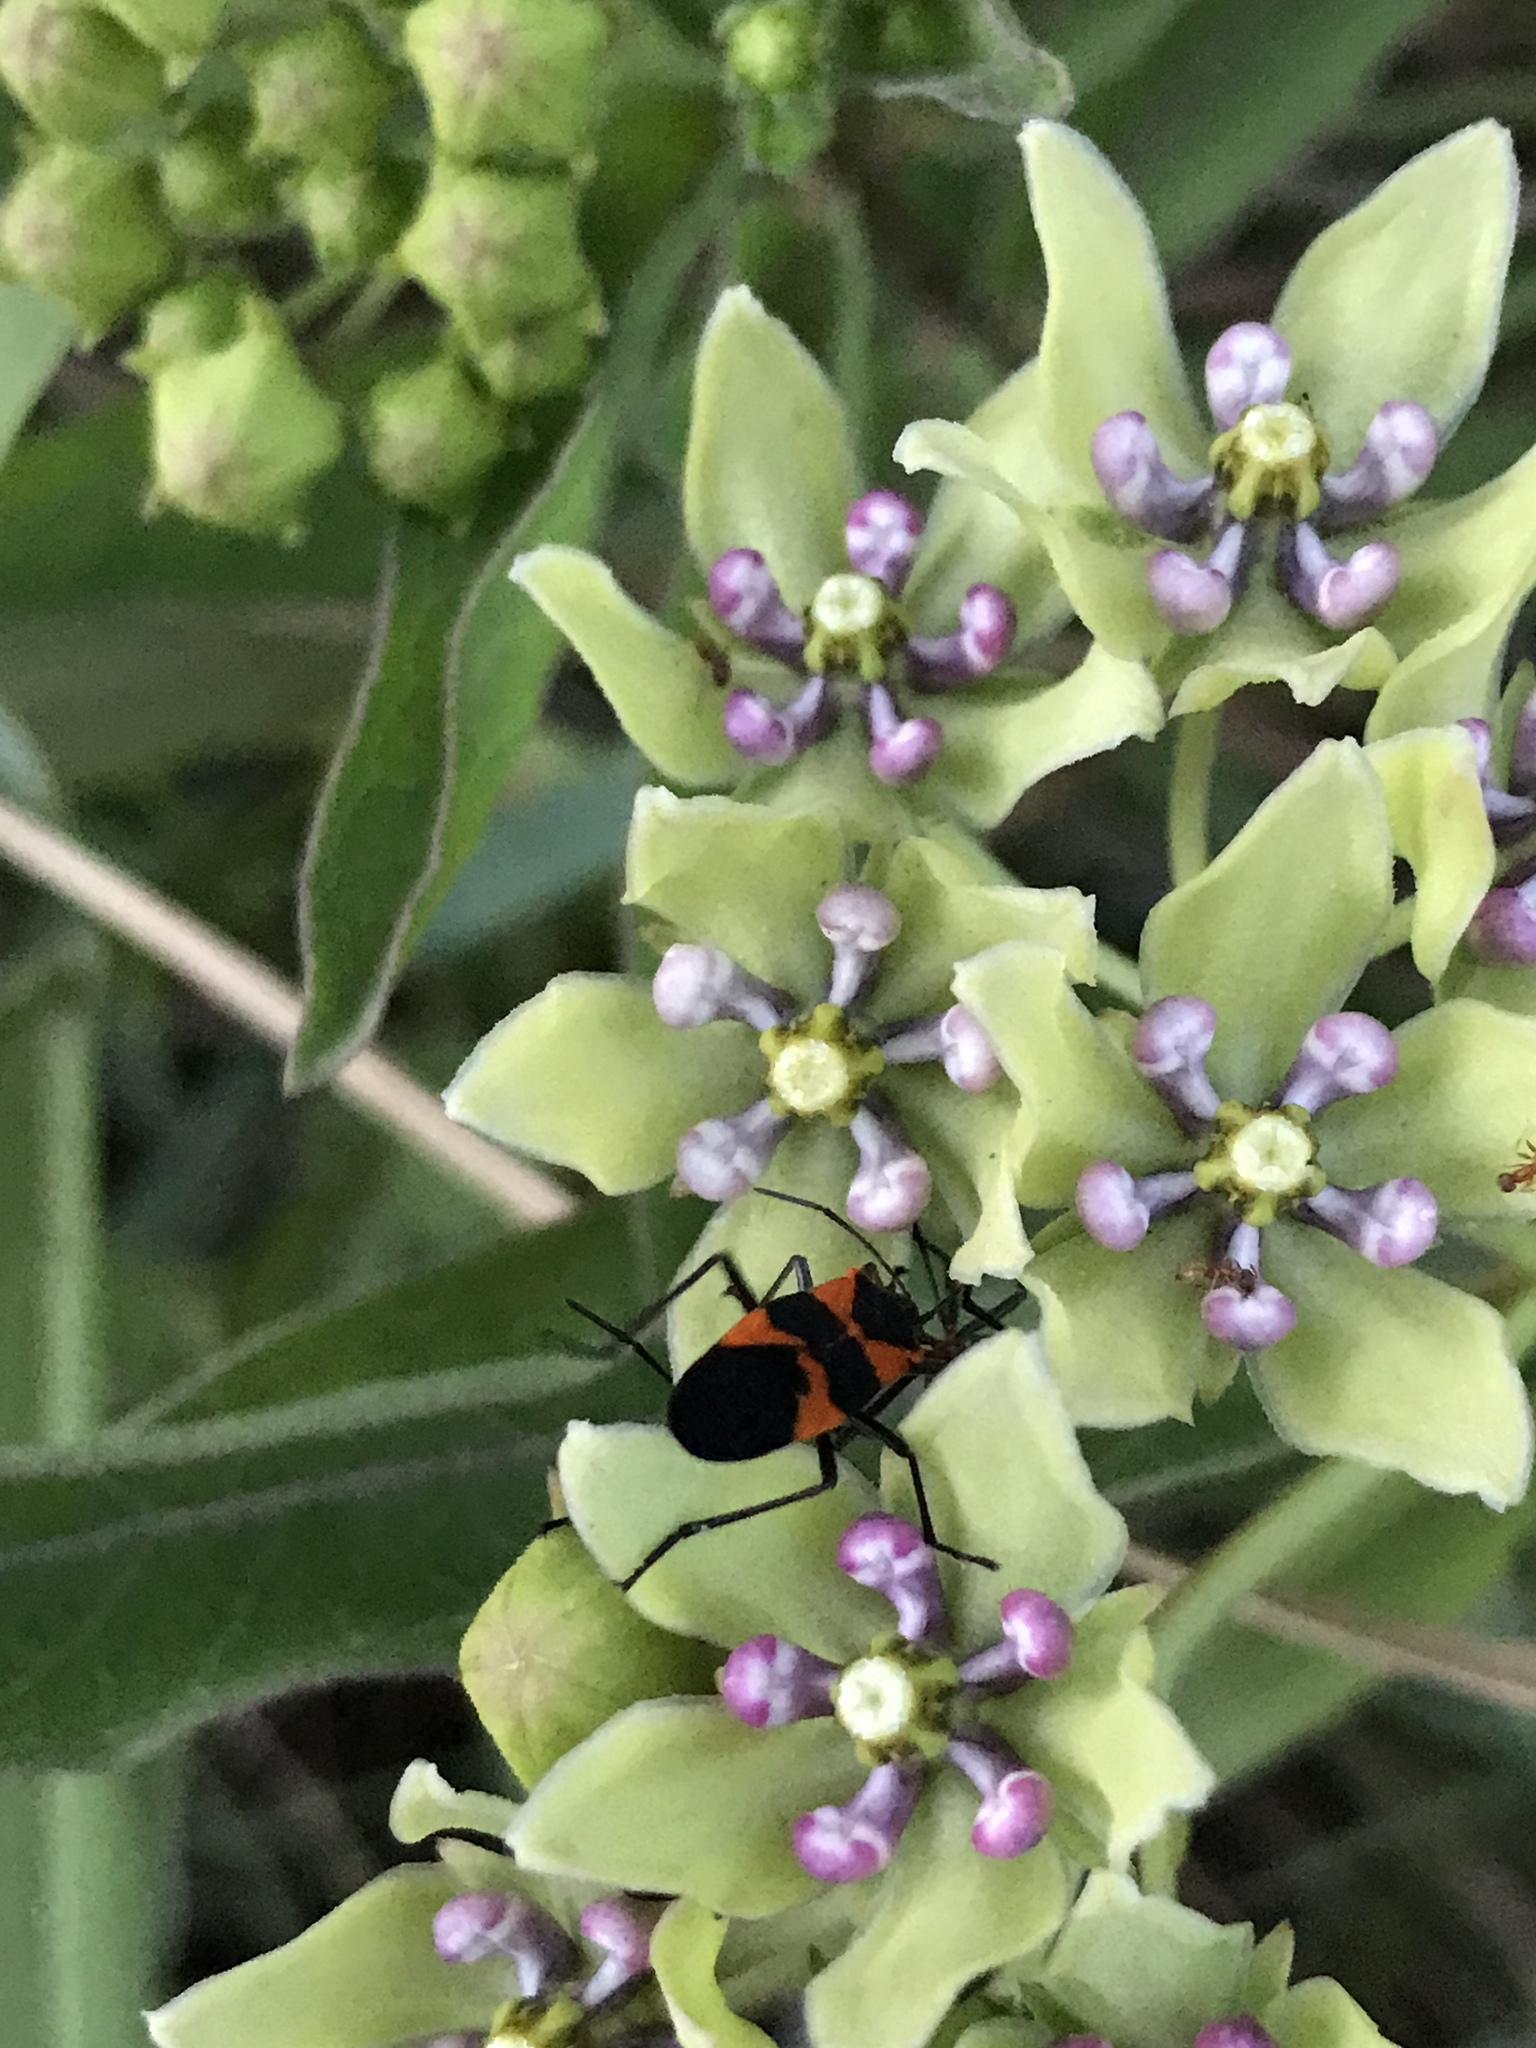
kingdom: Animalia
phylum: Arthropoda
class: Insecta
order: Hemiptera
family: Lygaeidae
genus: Oncopeltus
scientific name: Oncopeltus fasciatus
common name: Large milkweed bug
